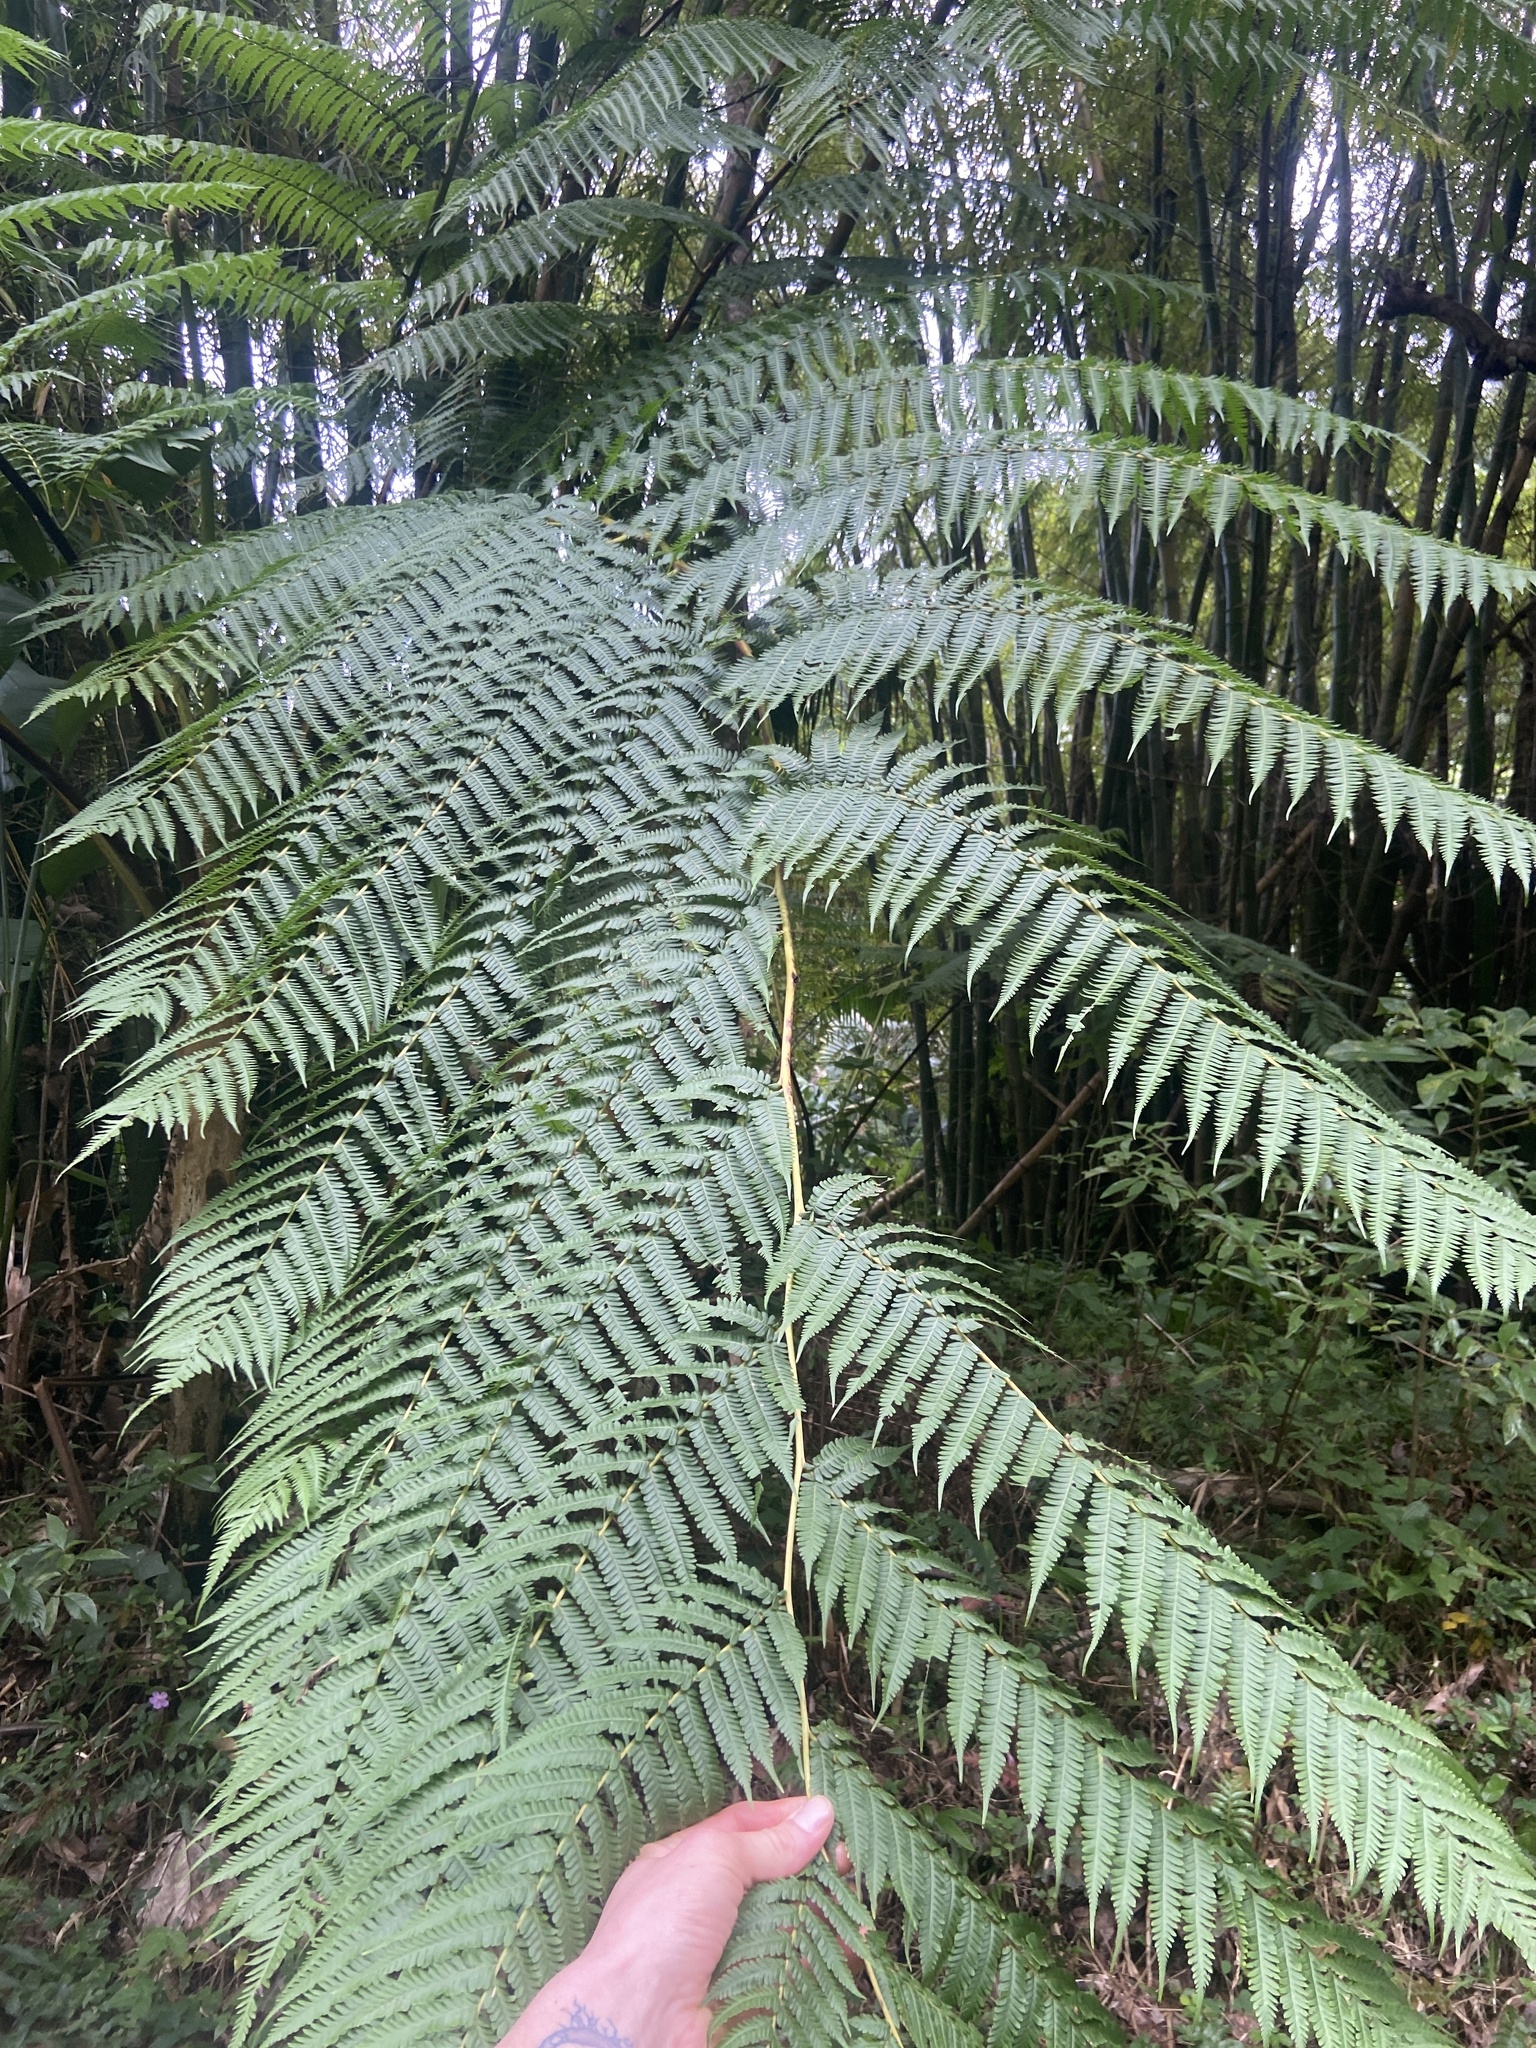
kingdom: Plantae
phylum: Tracheophyta
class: Polypodiopsida
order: Cyatheales
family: Cyatheaceae
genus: Cyathea
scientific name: Cyathea arborea
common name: West indian treefern
